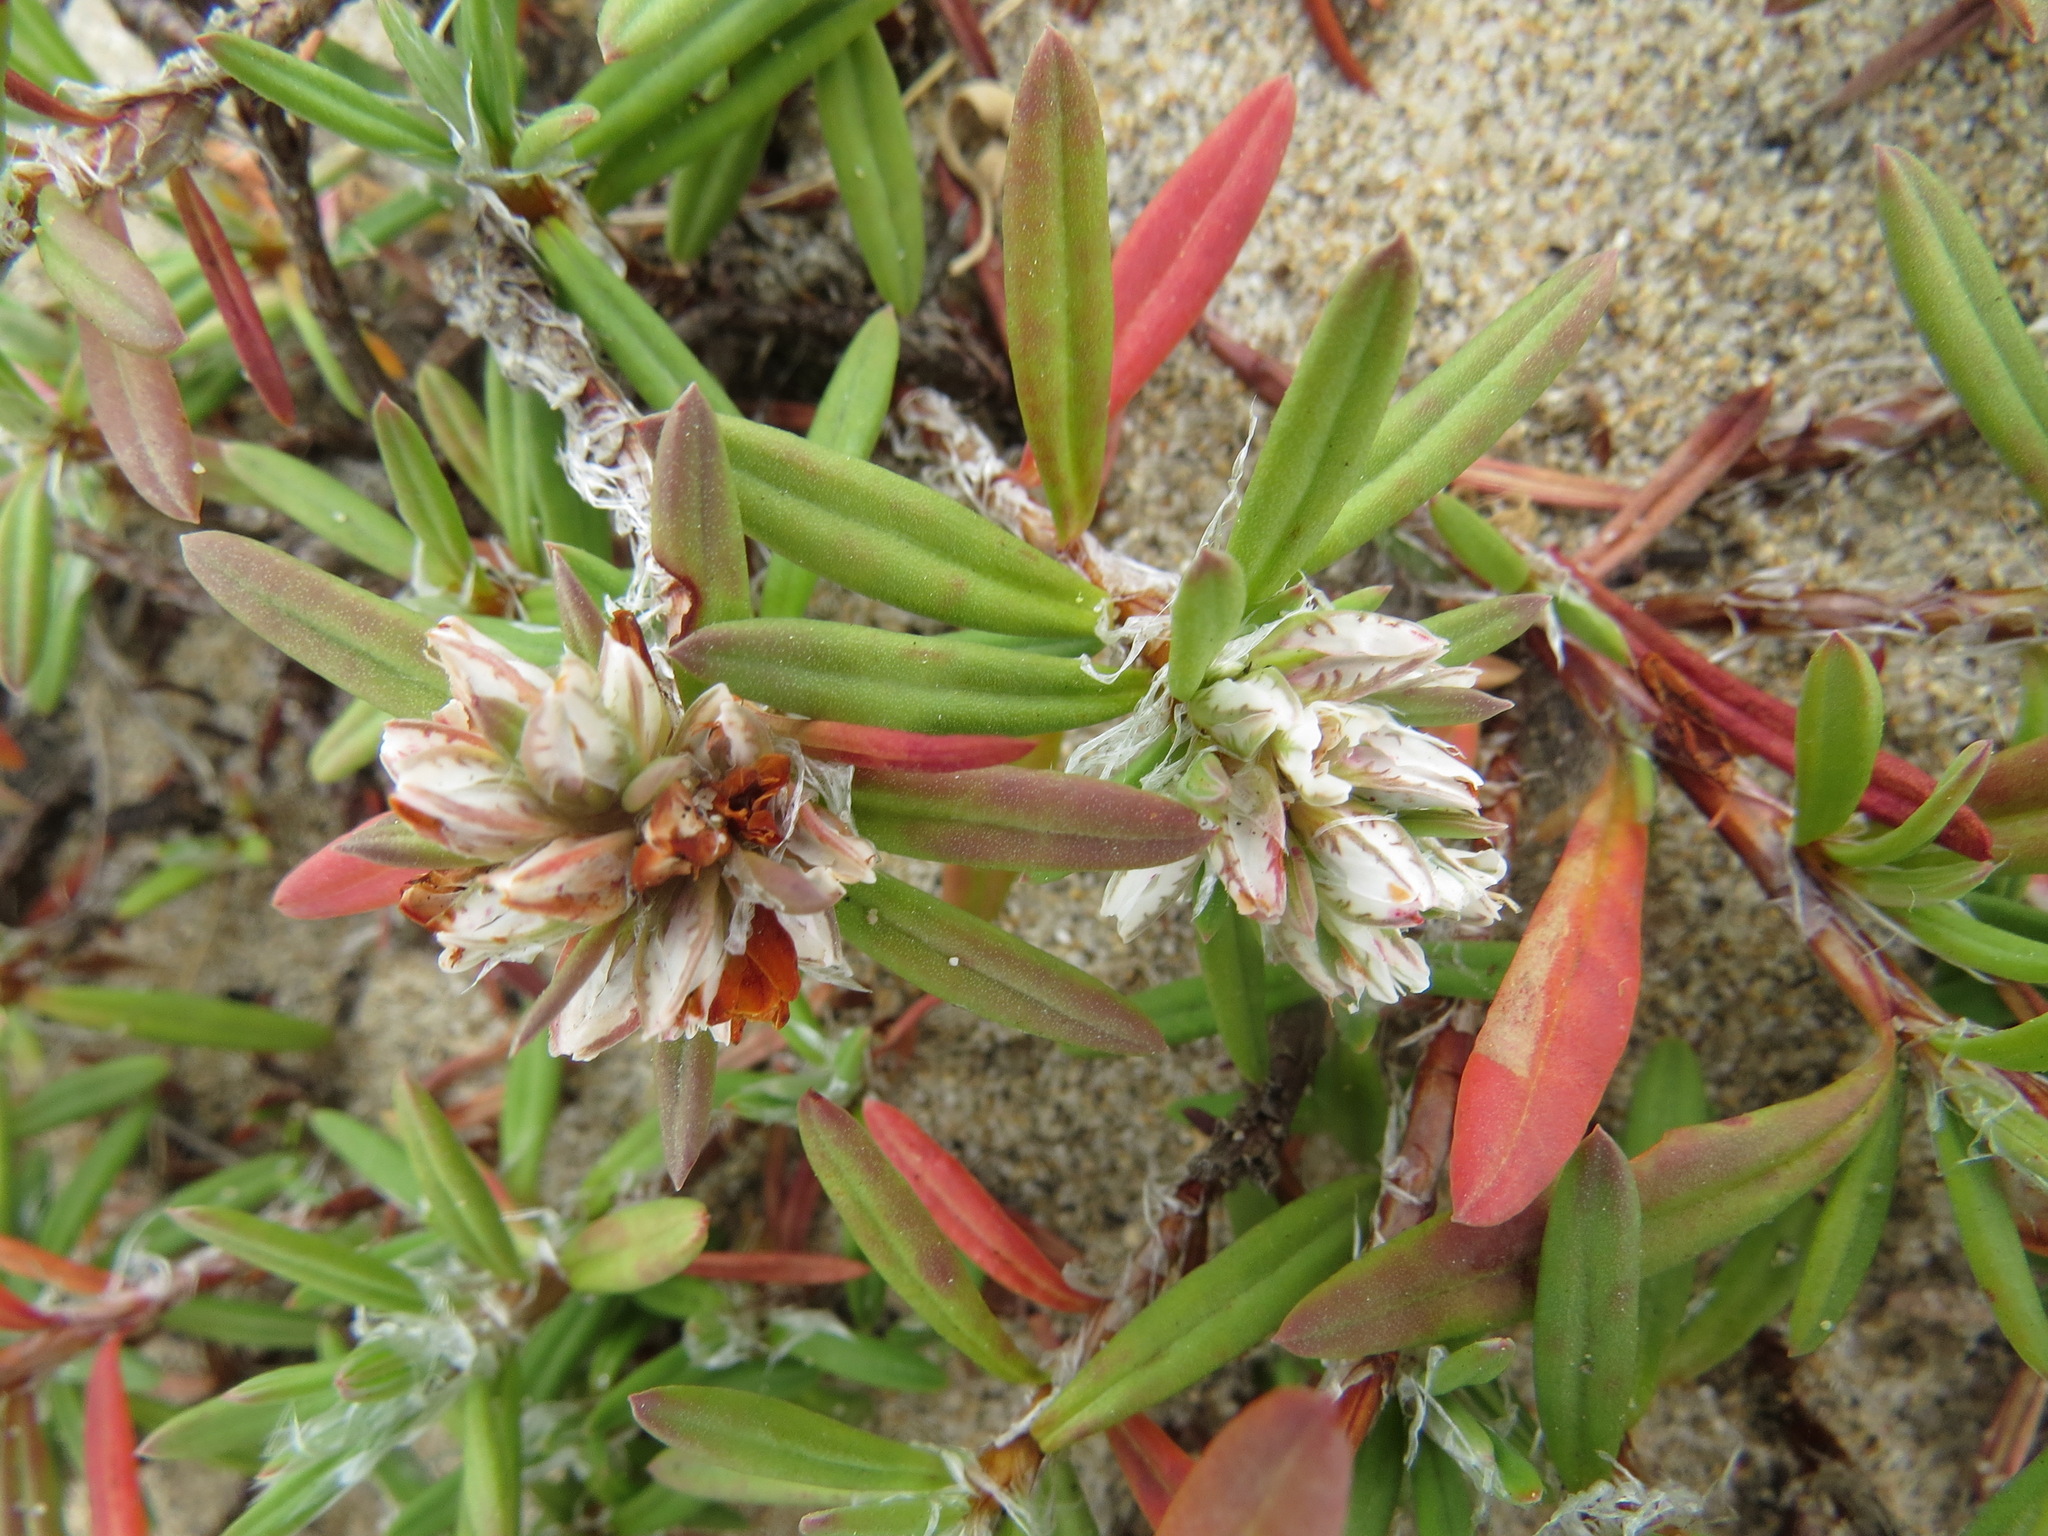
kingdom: Plantae
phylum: Tracheophyta
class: Magnoliopsida
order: Caryophyllales
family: Polygonaceae
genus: Polygonum
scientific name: Polygonum paronychia
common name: Dune knotweed
